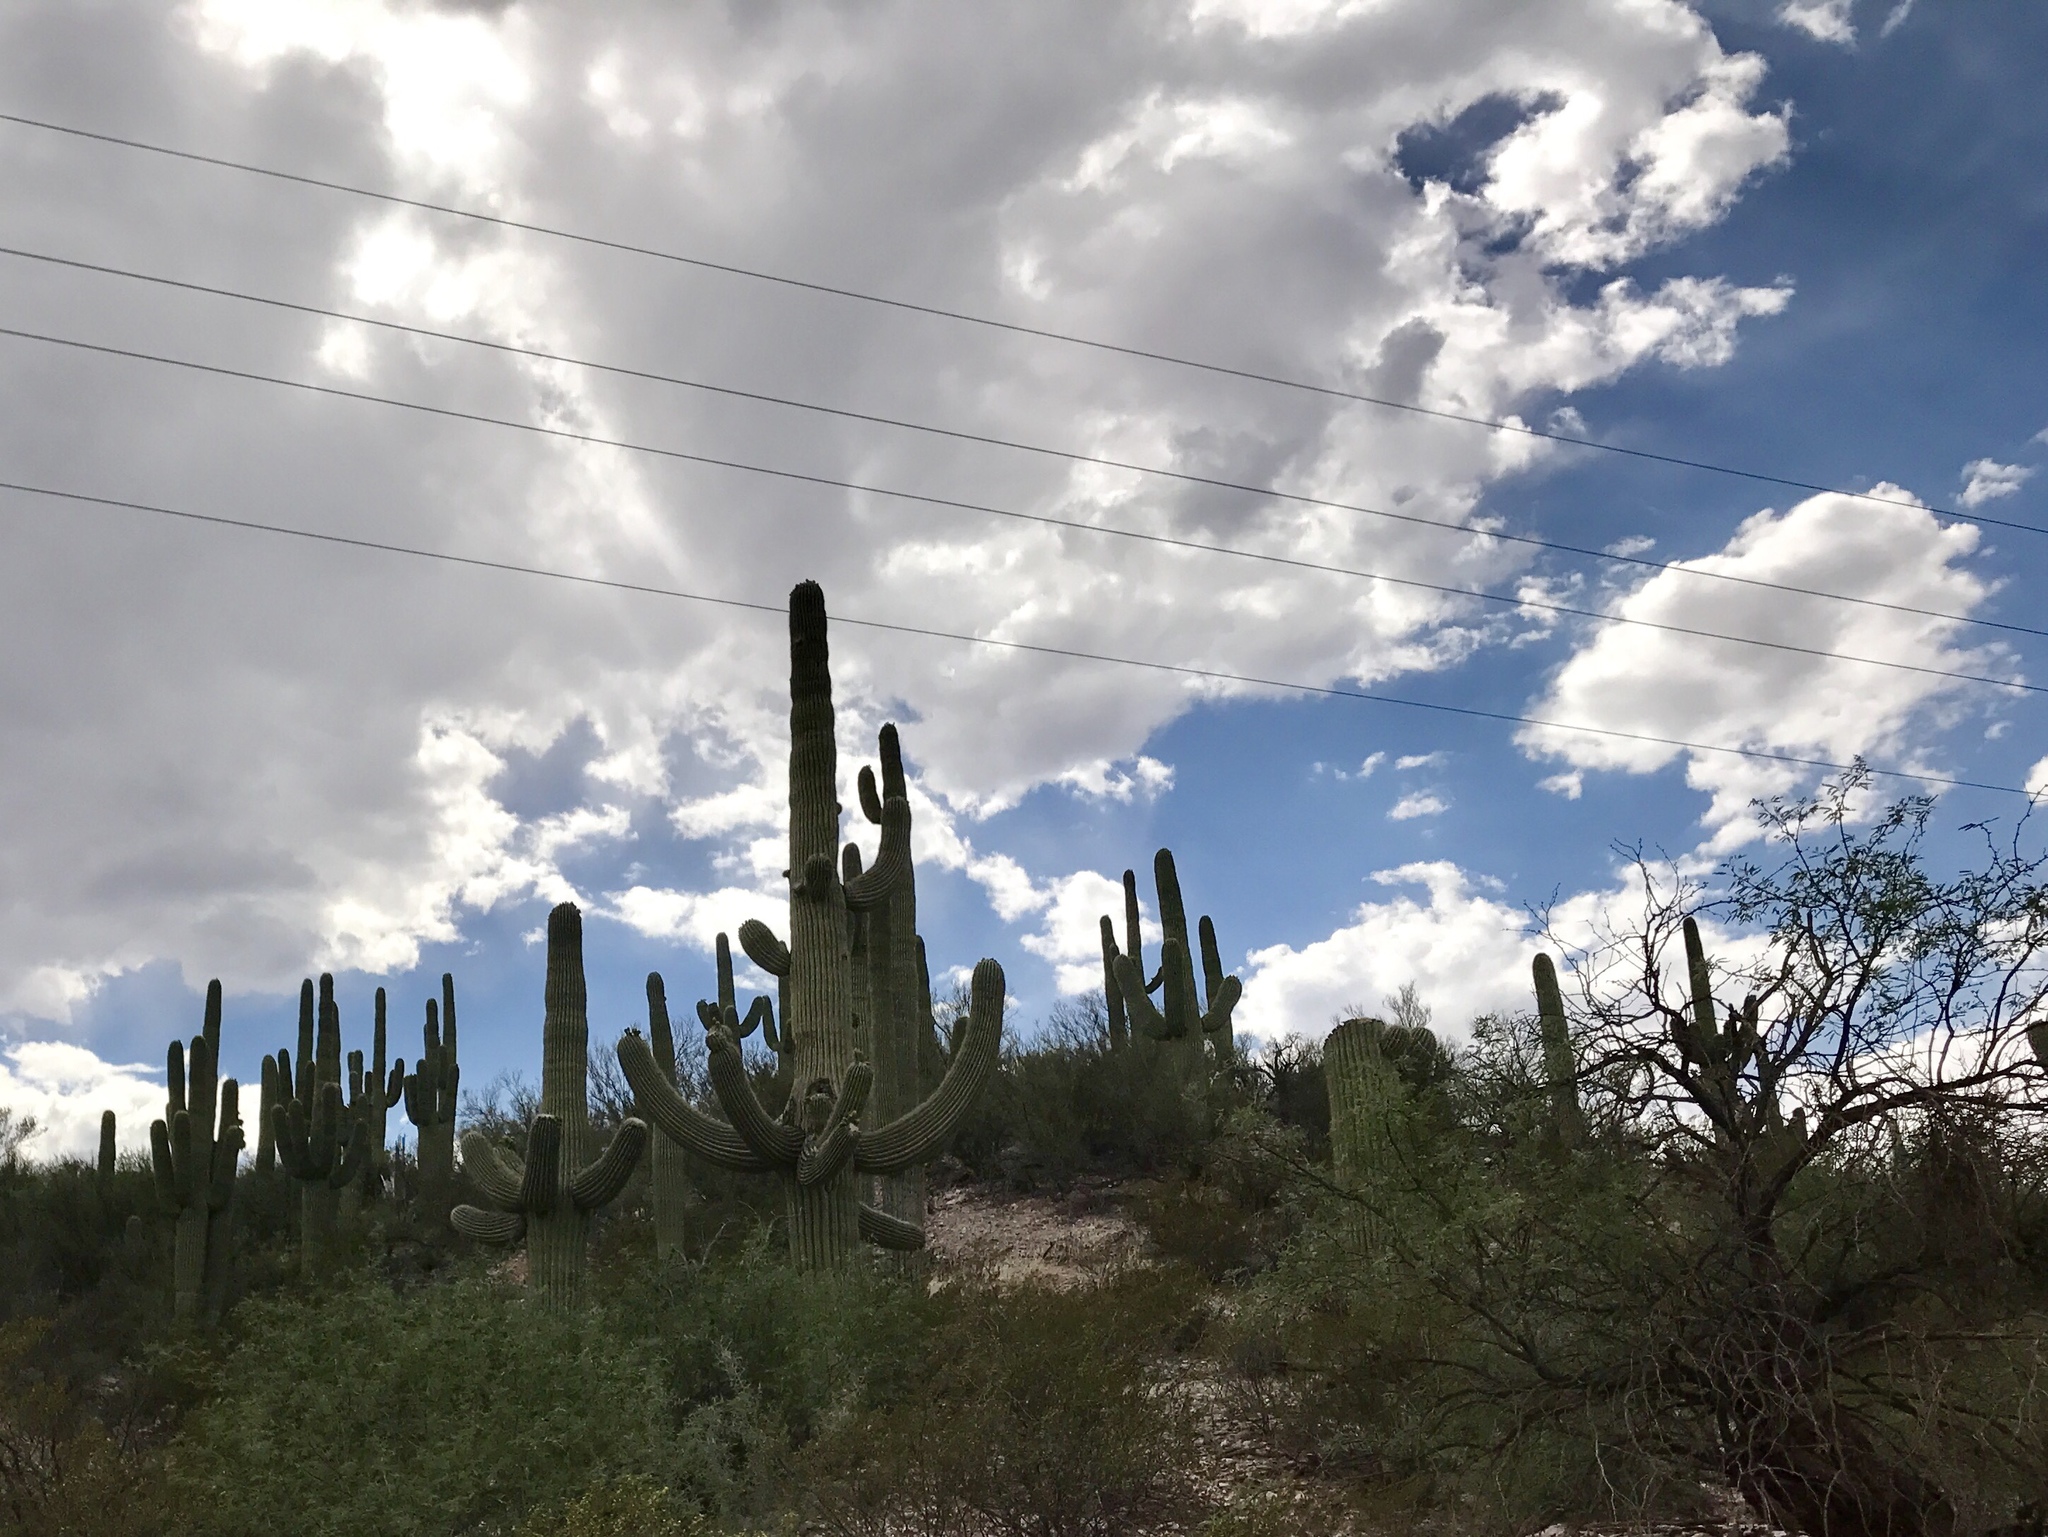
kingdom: Plantae
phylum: Tracheophyta
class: Magnoliopsida
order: Caryophyllales
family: Cactaceae
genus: Carnegiea
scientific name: Carnegiea gigantea
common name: Saguaro
